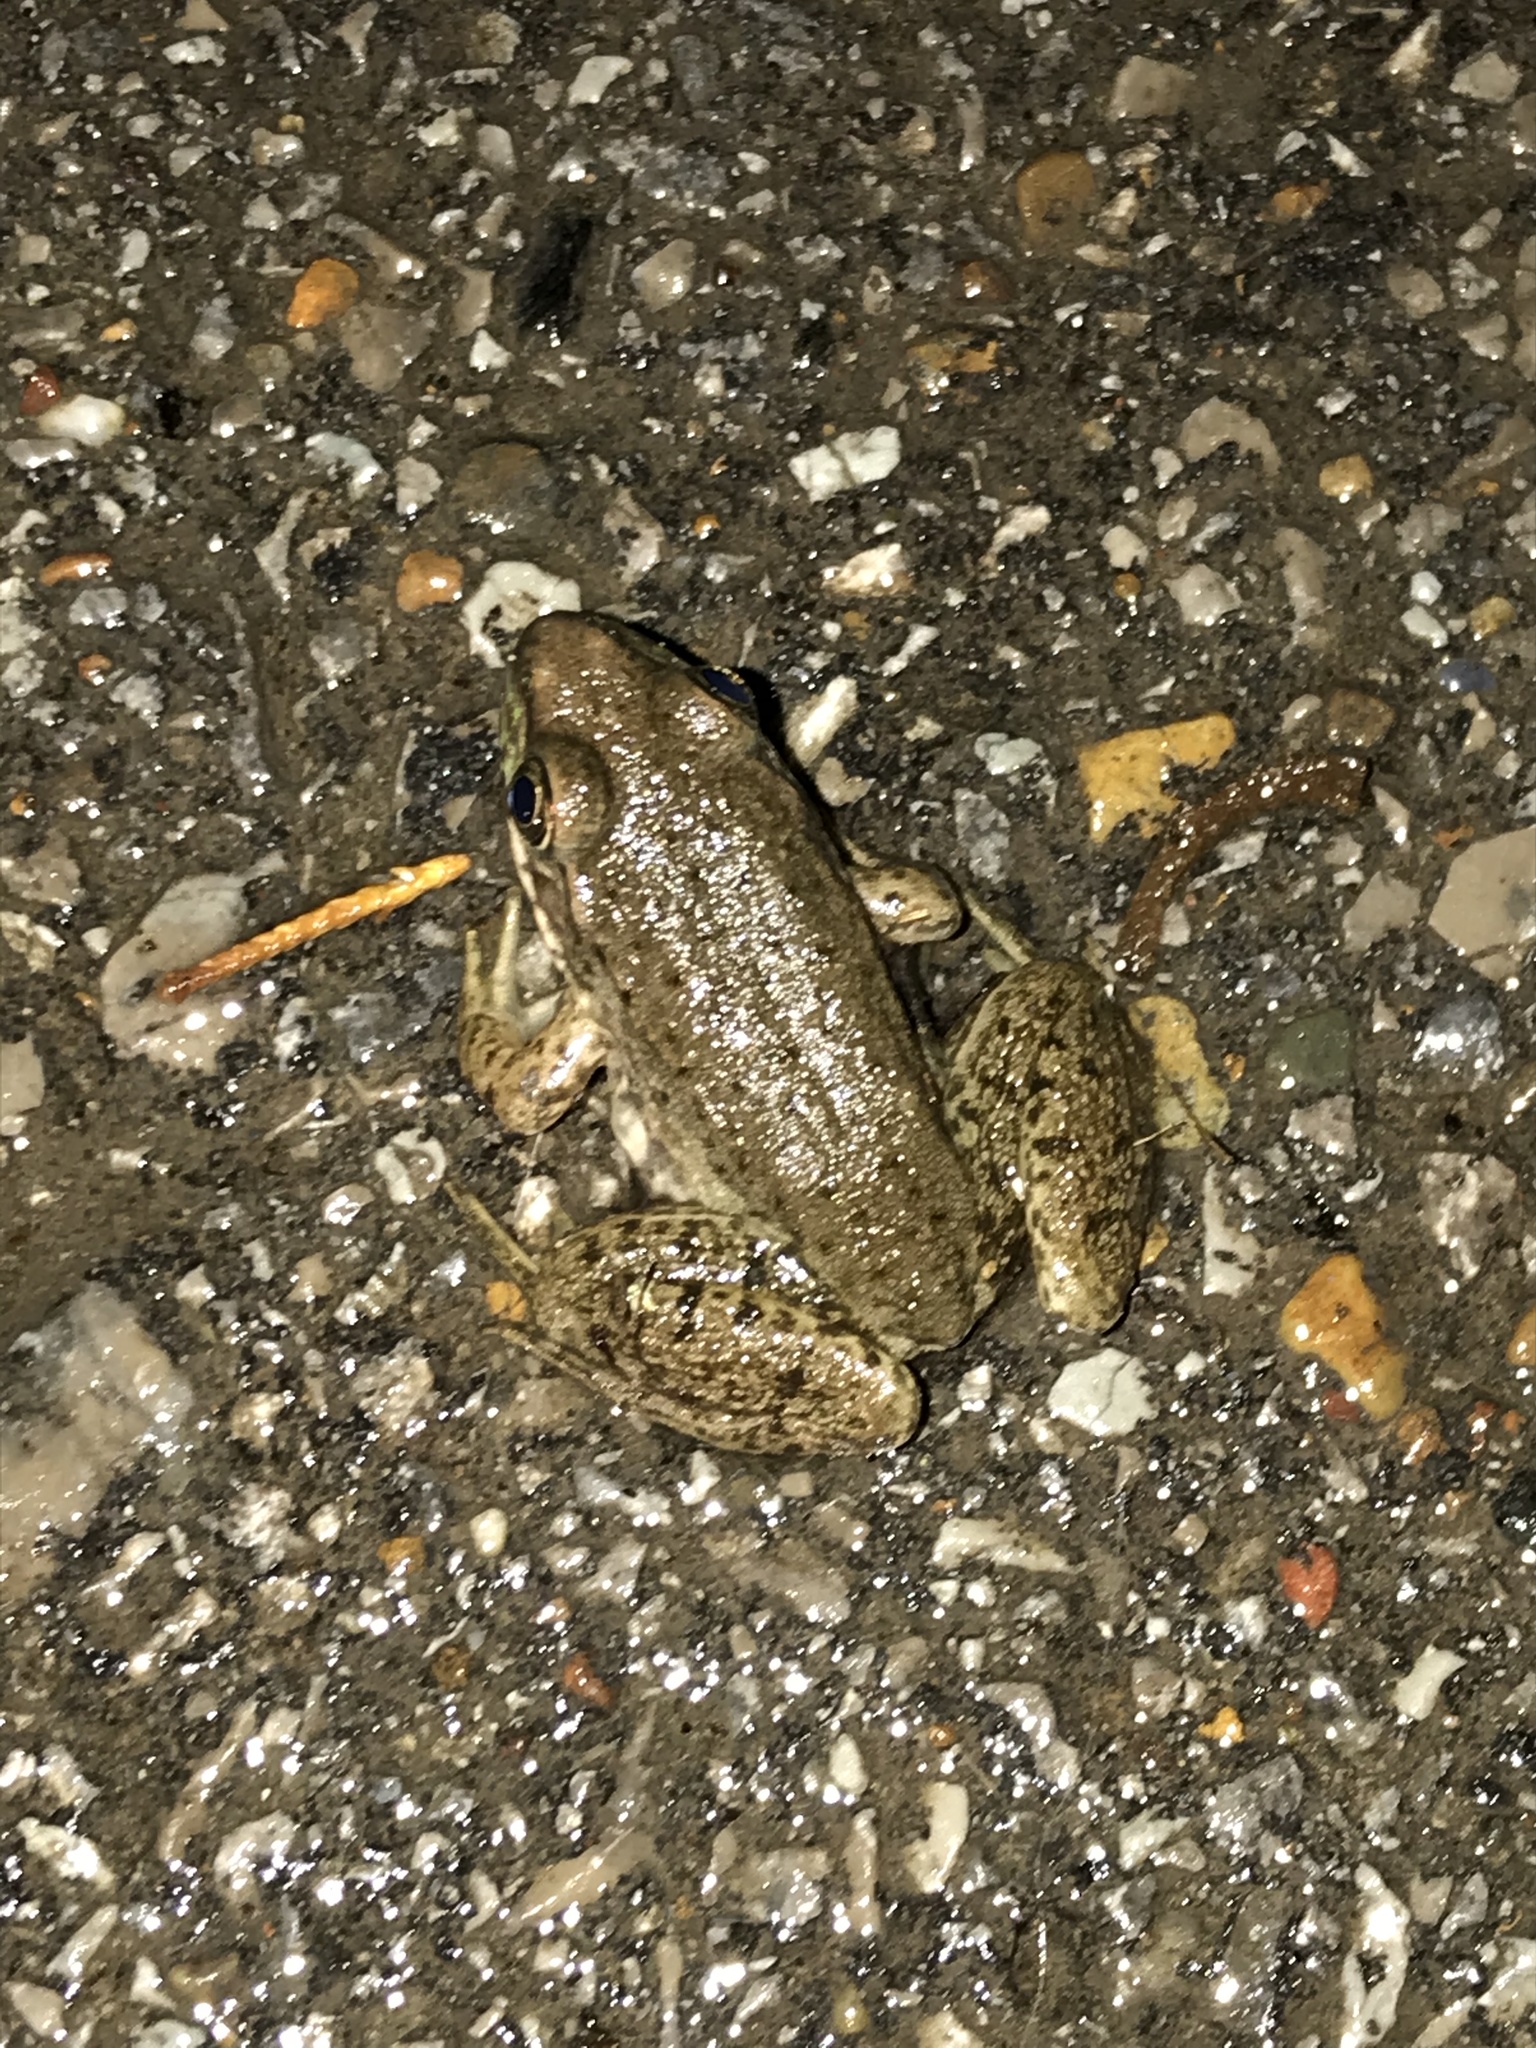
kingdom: Animalia
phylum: Chordata
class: Amphibia
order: Anura
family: Ranidae
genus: Lithobates
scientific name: Lithobates clamitans
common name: Green frog
